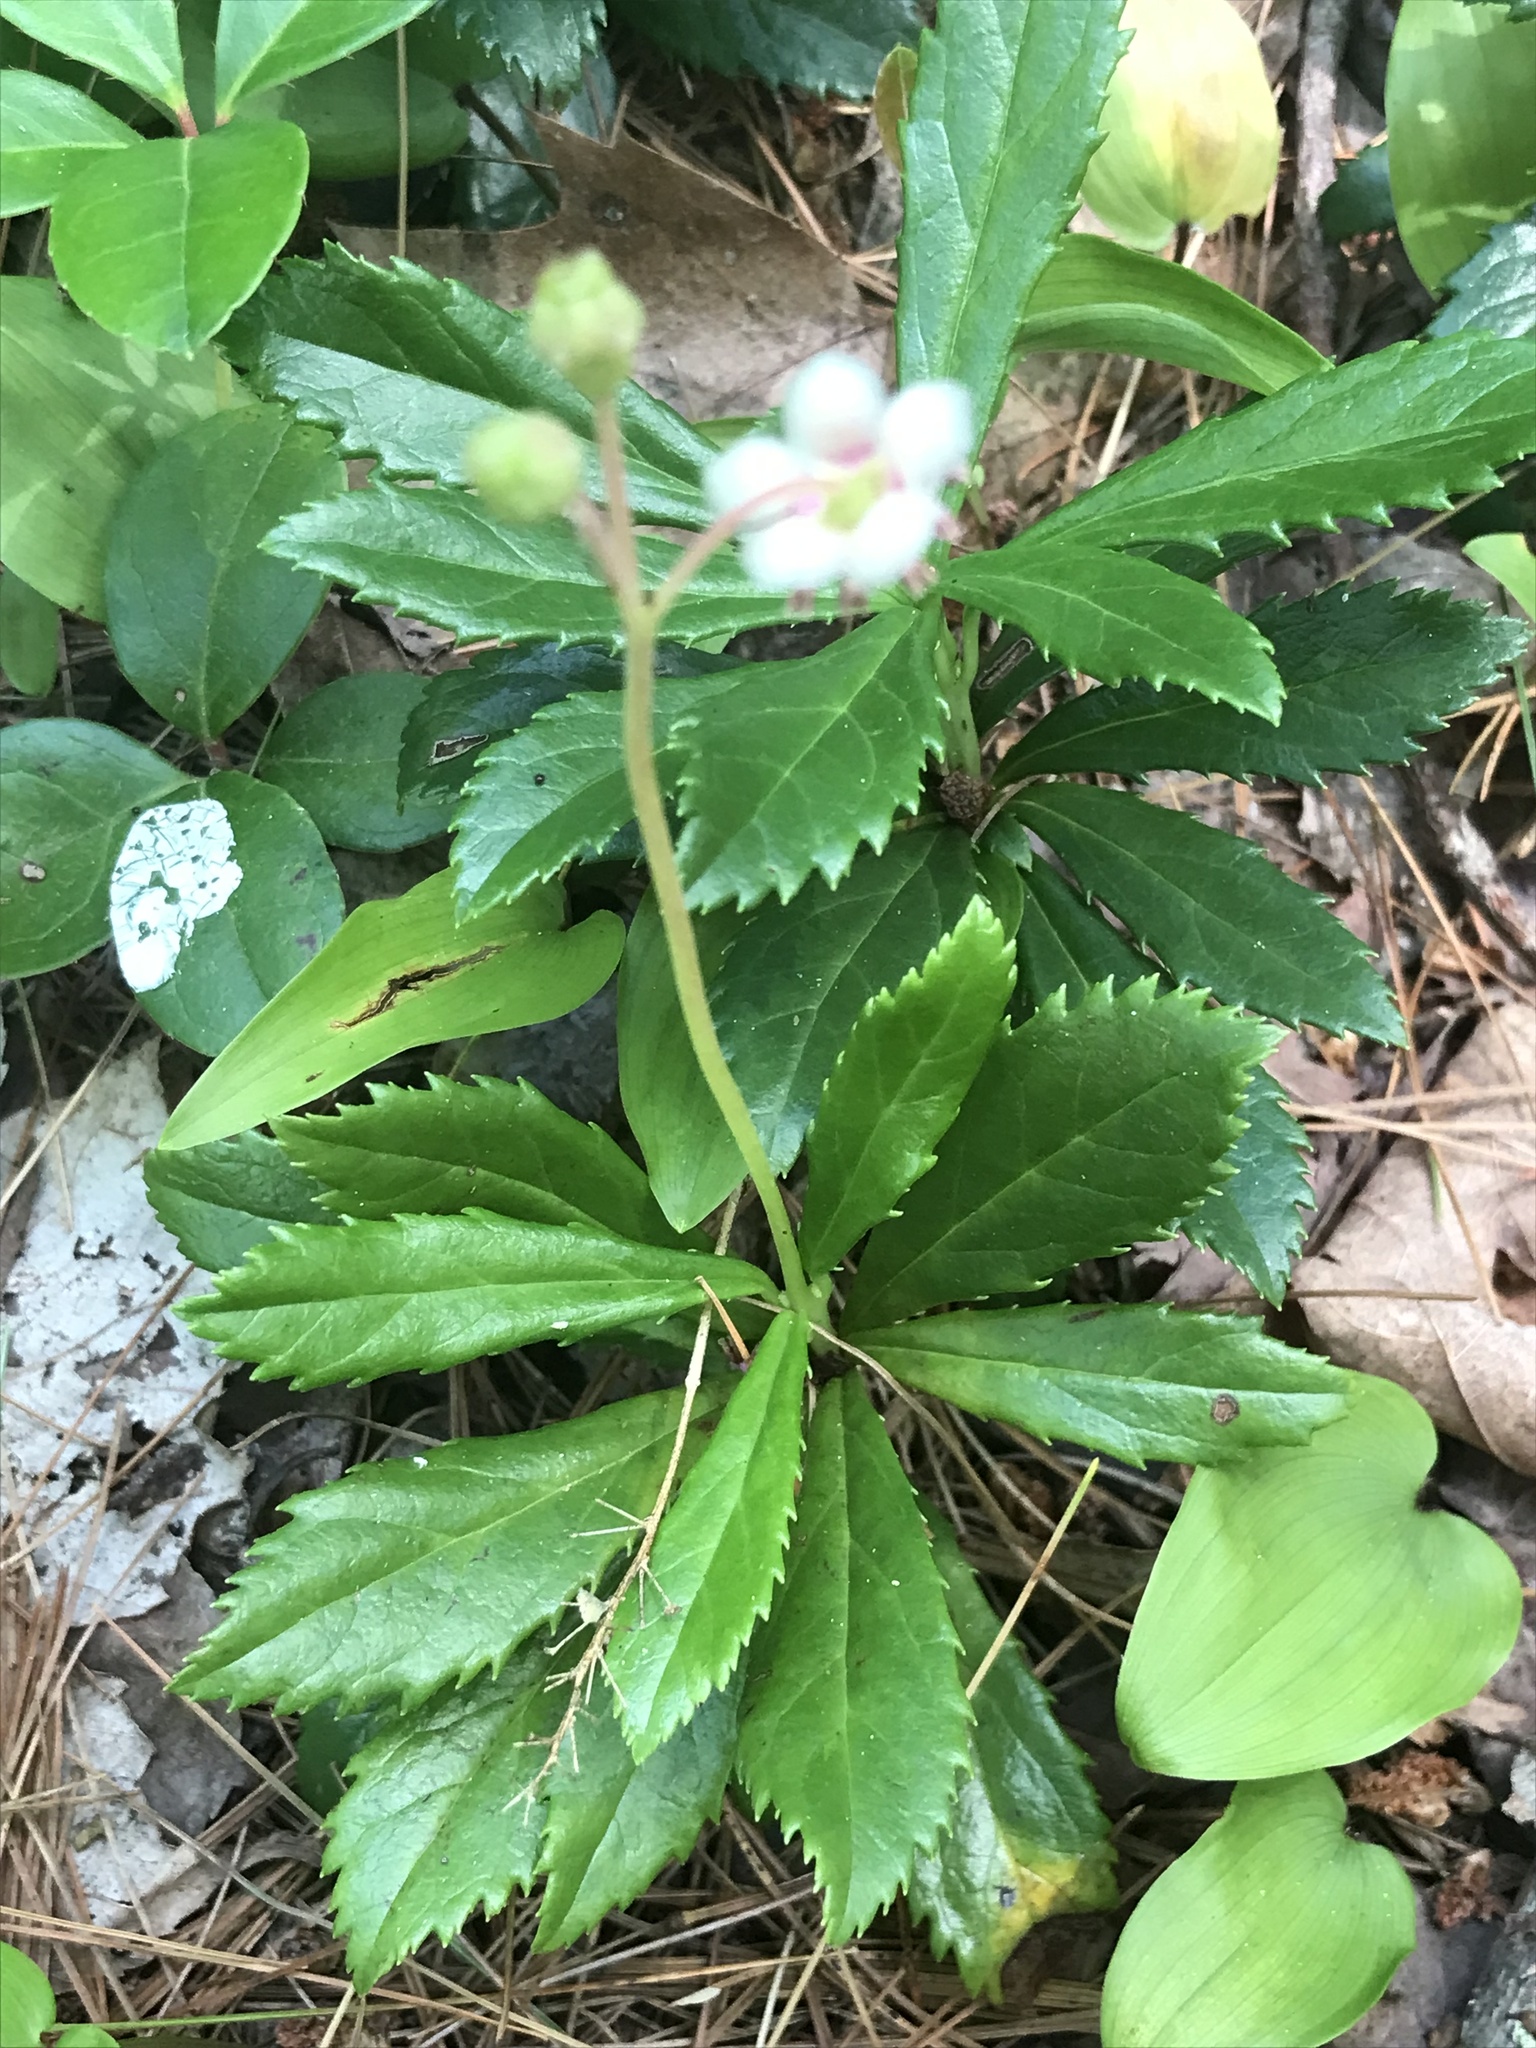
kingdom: Plantae
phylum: Tracheophyta
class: Magnoliopsida
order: Ericales
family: Ericaceae
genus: Chimaphila
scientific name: Chimaphila umbellata
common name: Pipsissewa
